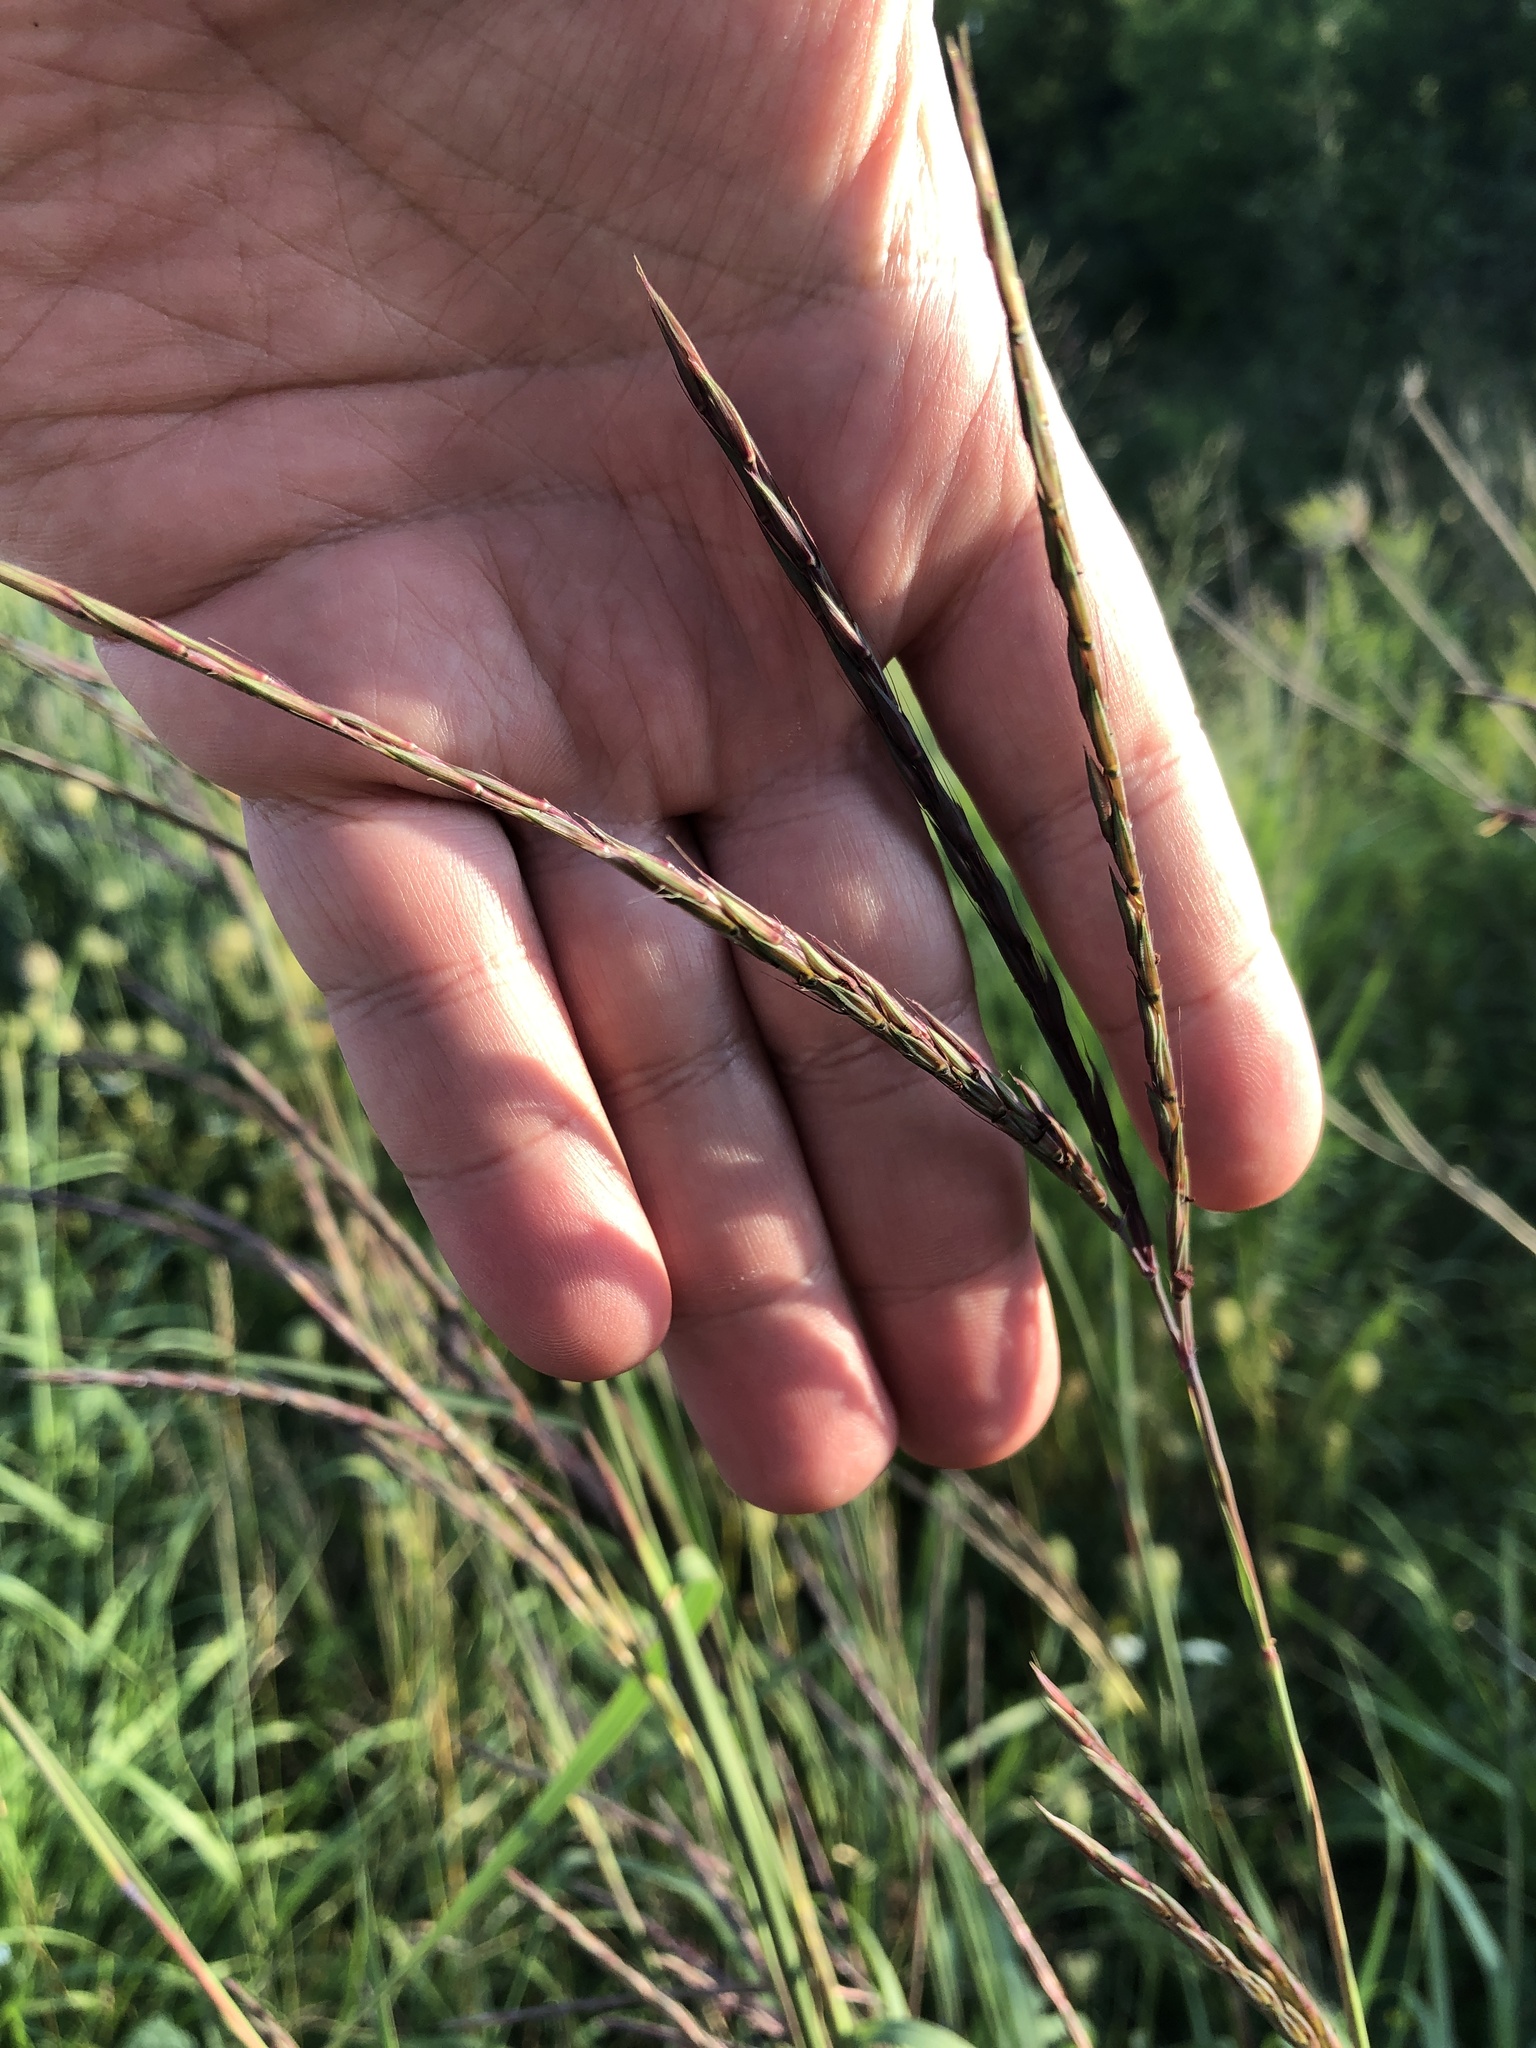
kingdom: Plantae
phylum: Tracheophyta
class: Liliopsida
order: Poales
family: Poaceae
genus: Andropogon
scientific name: Andropogon gerardi
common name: Big bluestem
